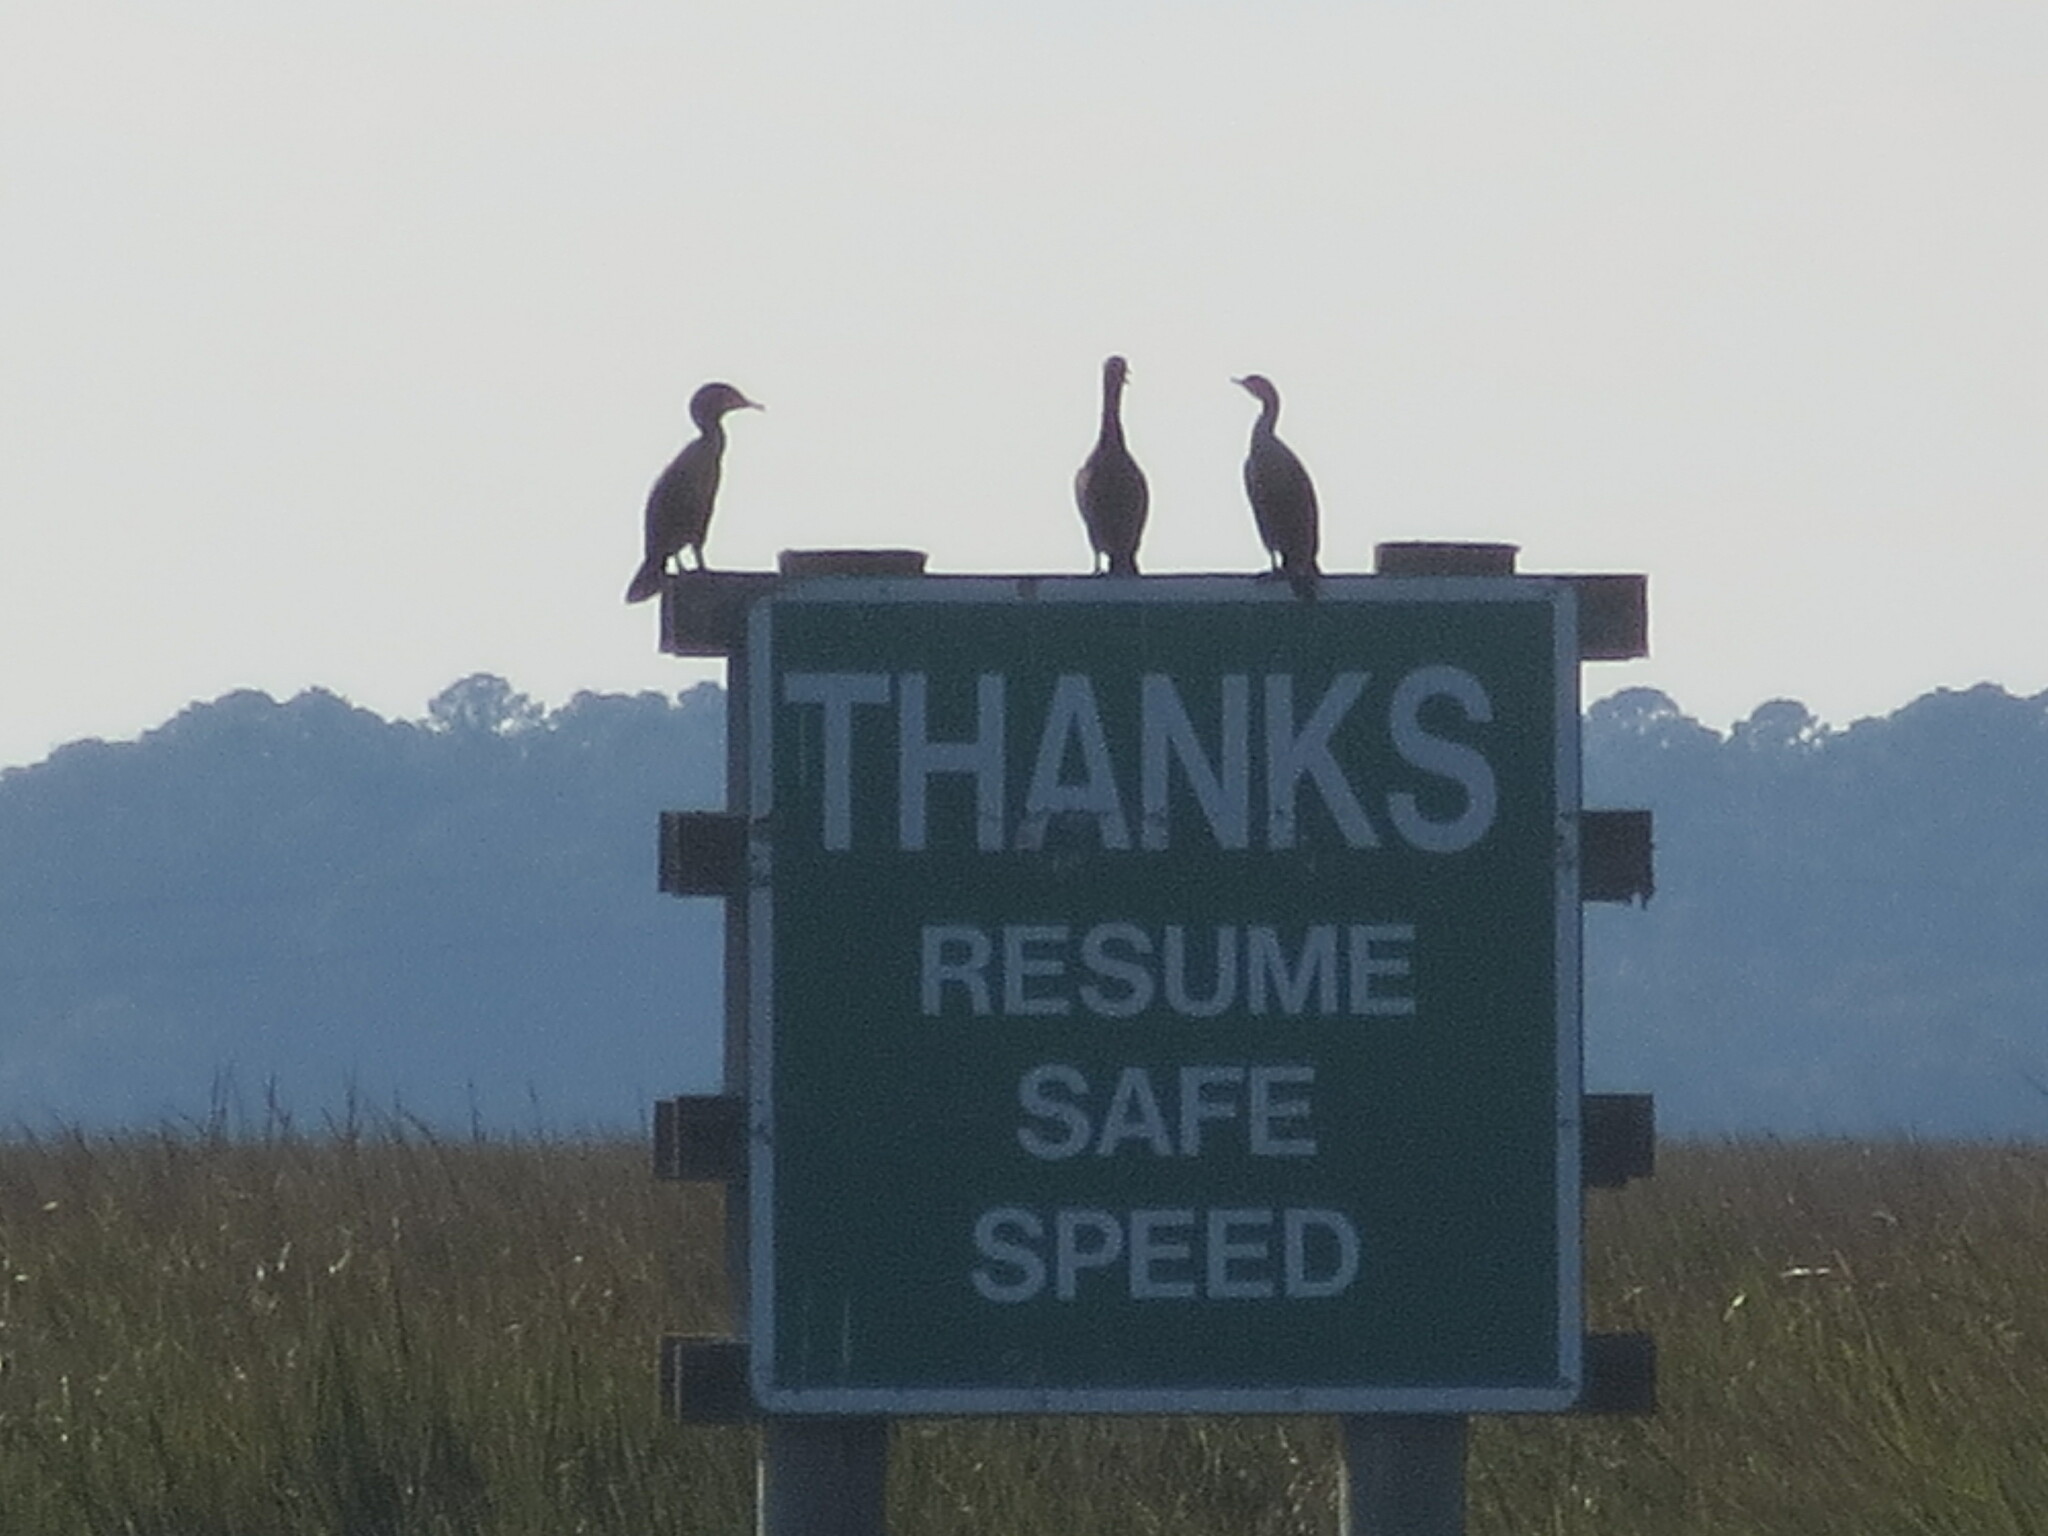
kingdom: Animalia
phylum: Chordata
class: Aves
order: Suliformes
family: Phalacrocoracidae
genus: Phalacrocorax
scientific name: Phalacrocorax auritus
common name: Double-crested cormorant
